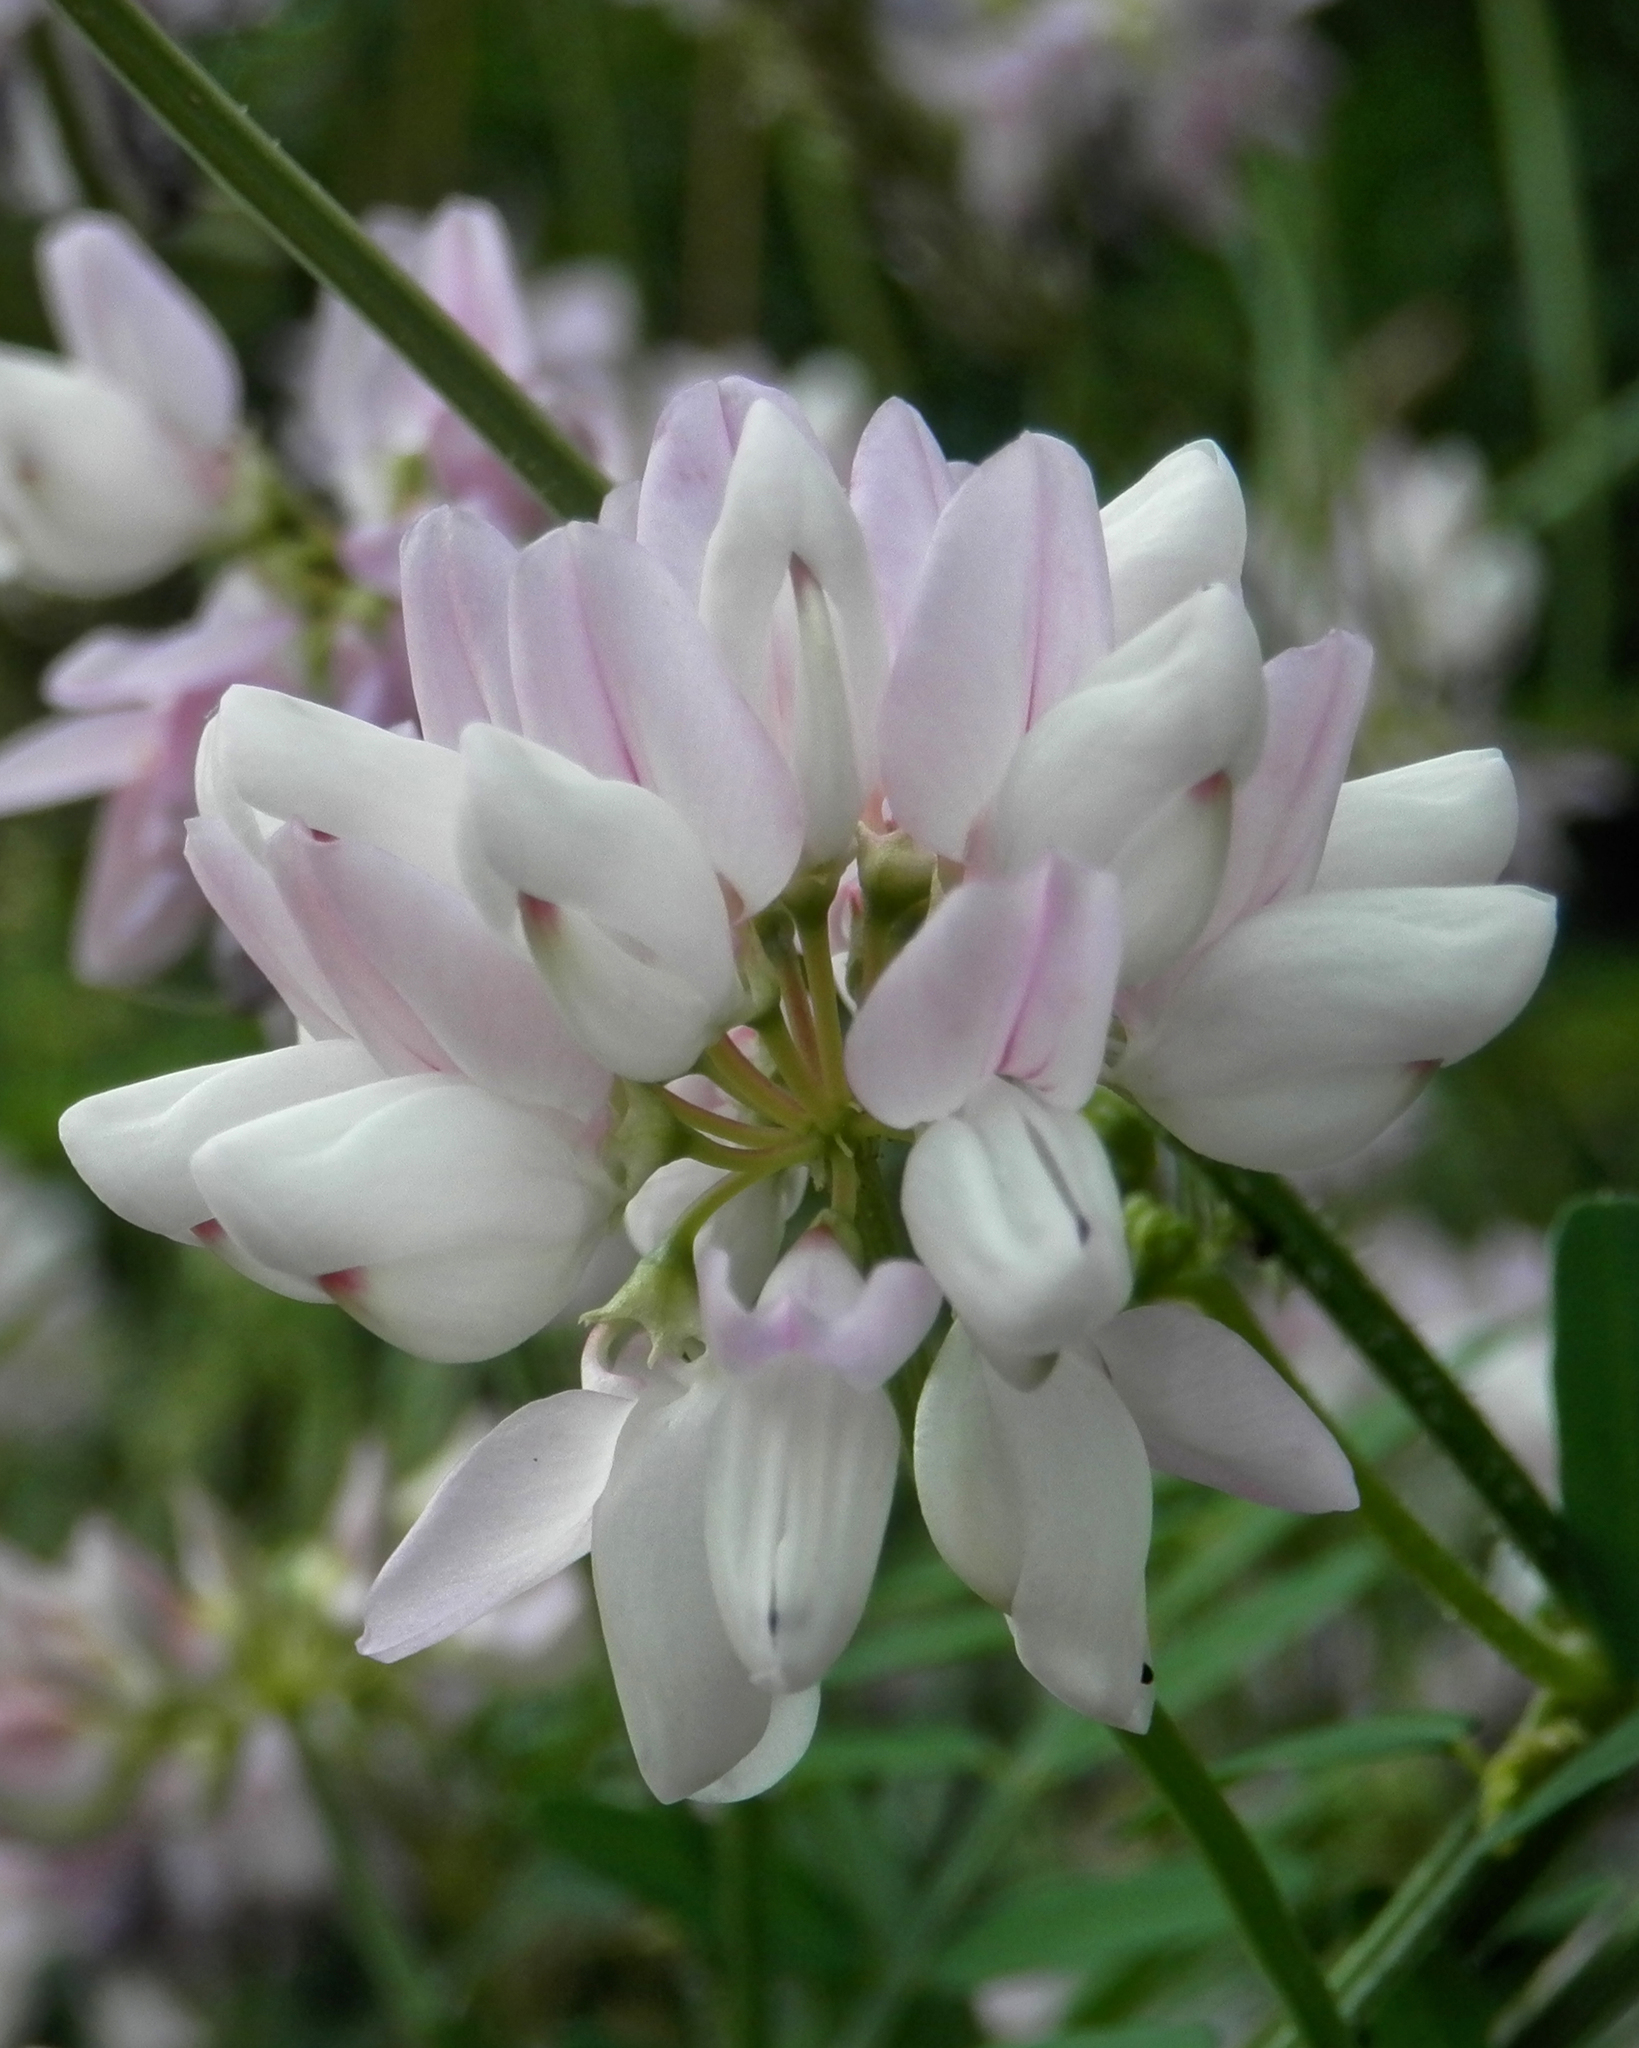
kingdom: Plantae
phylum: Tracheophyta
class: Magnoliopsida
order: Fabales
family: Fabaceae
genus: Coronilla
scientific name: Coronilla varia
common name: Crownvetch
